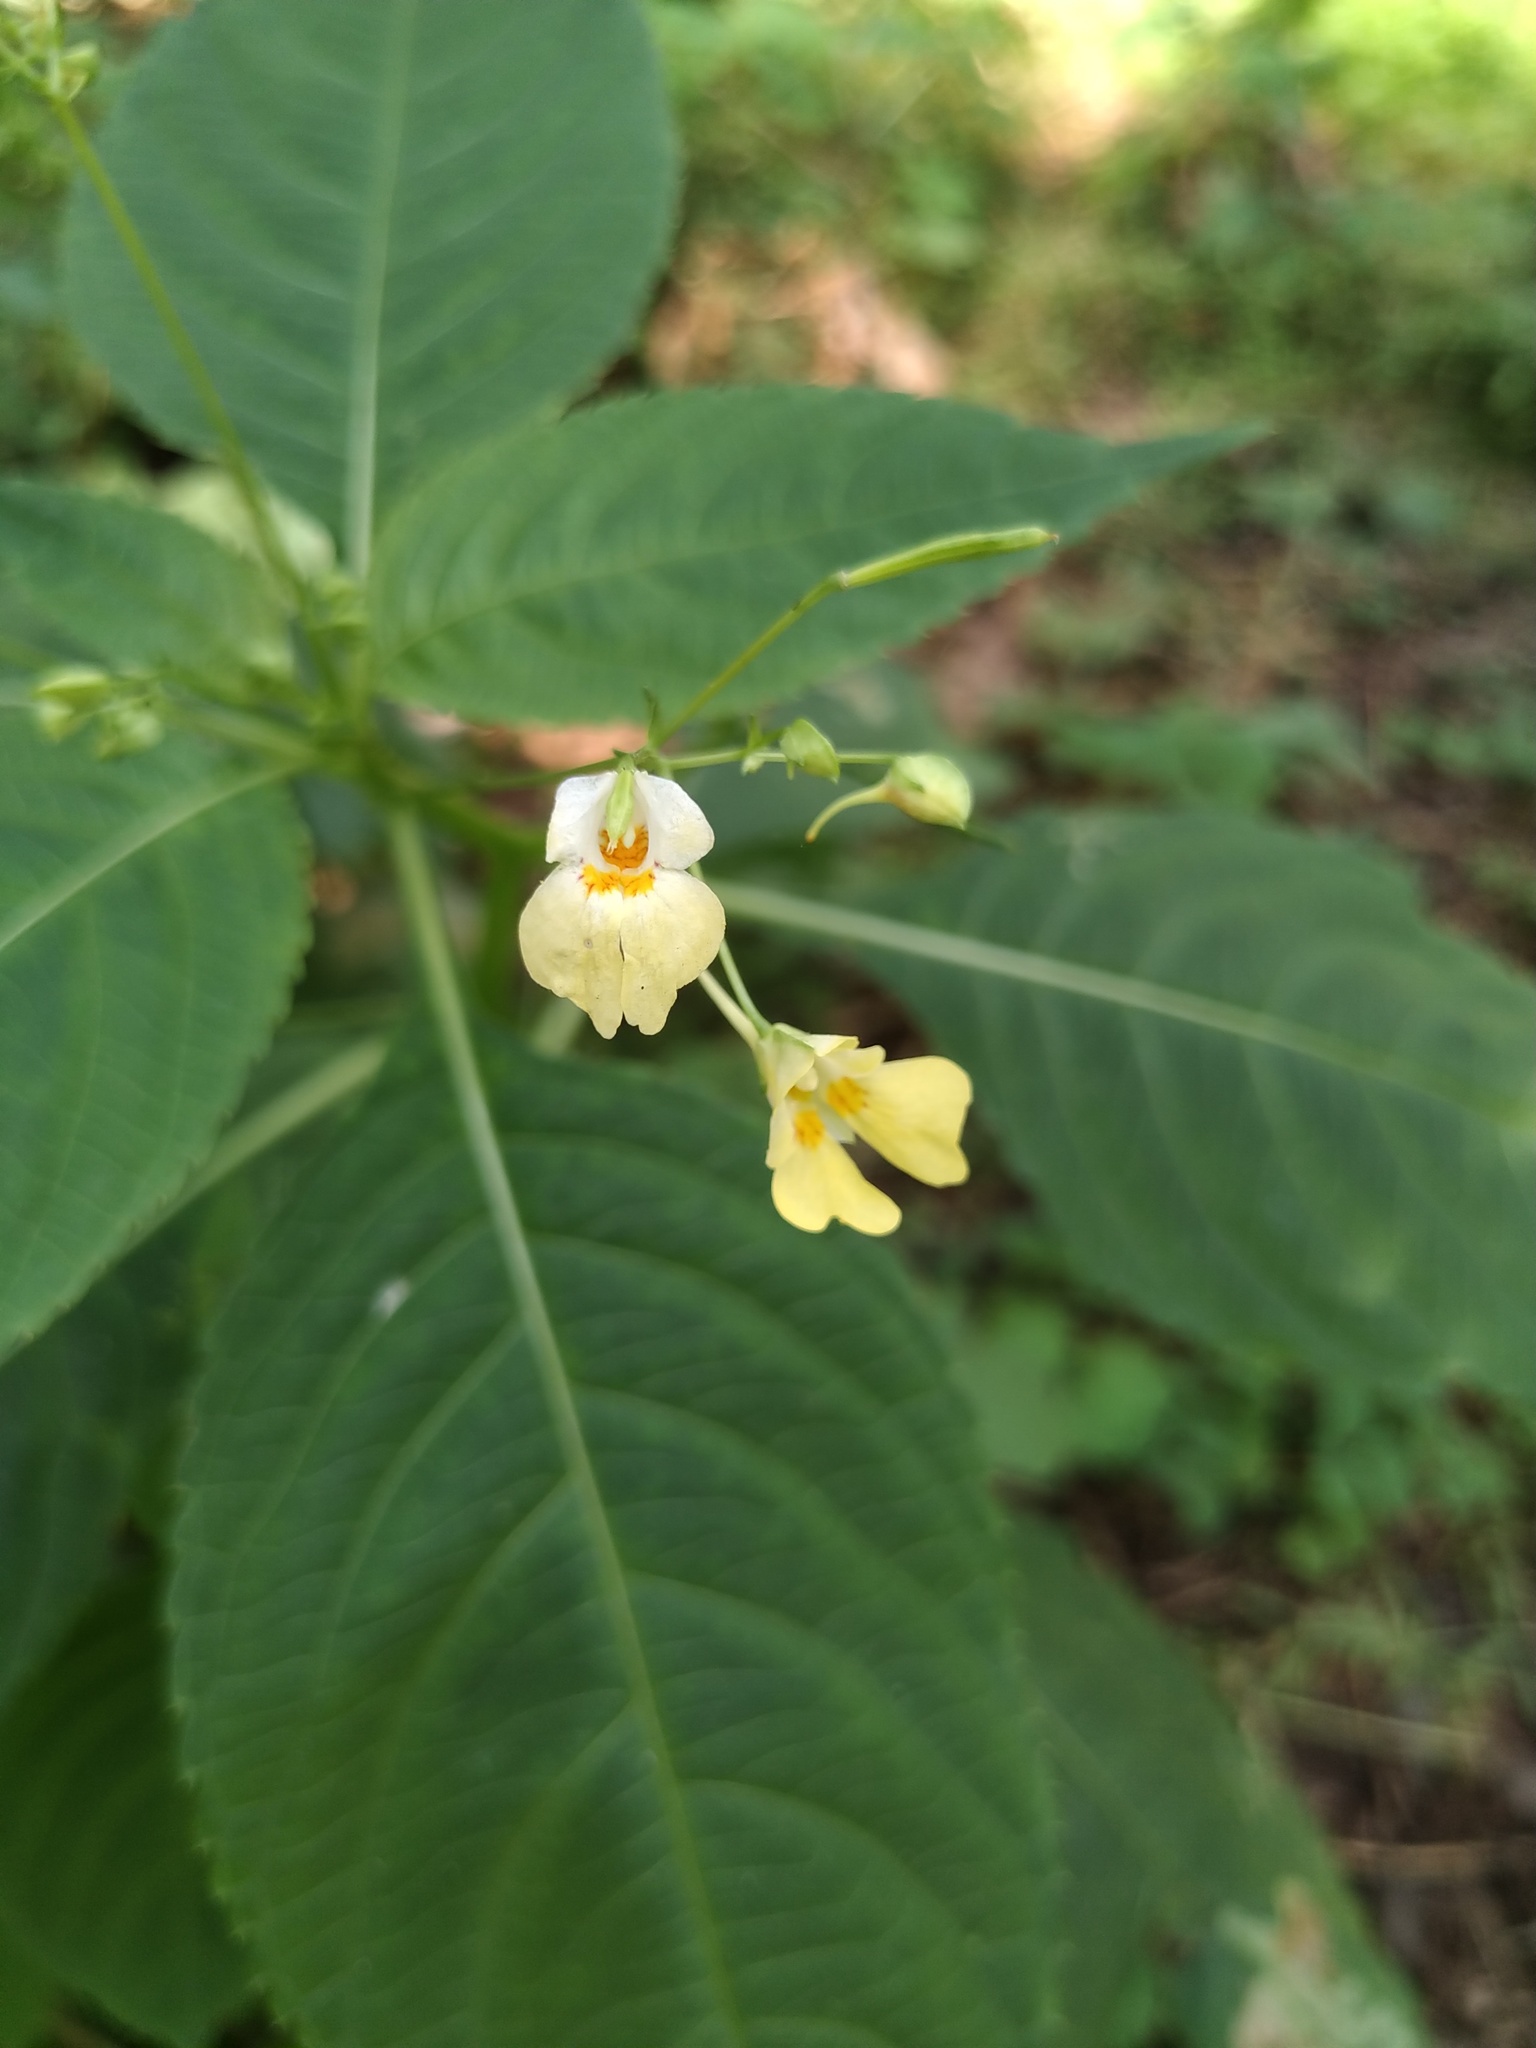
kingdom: Plantae
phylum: Tracheophyta
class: Magnoliopsida
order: Ericales
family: Balsaminaceae
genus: Impatiens
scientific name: Impatiens parviflora
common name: Small balsam
